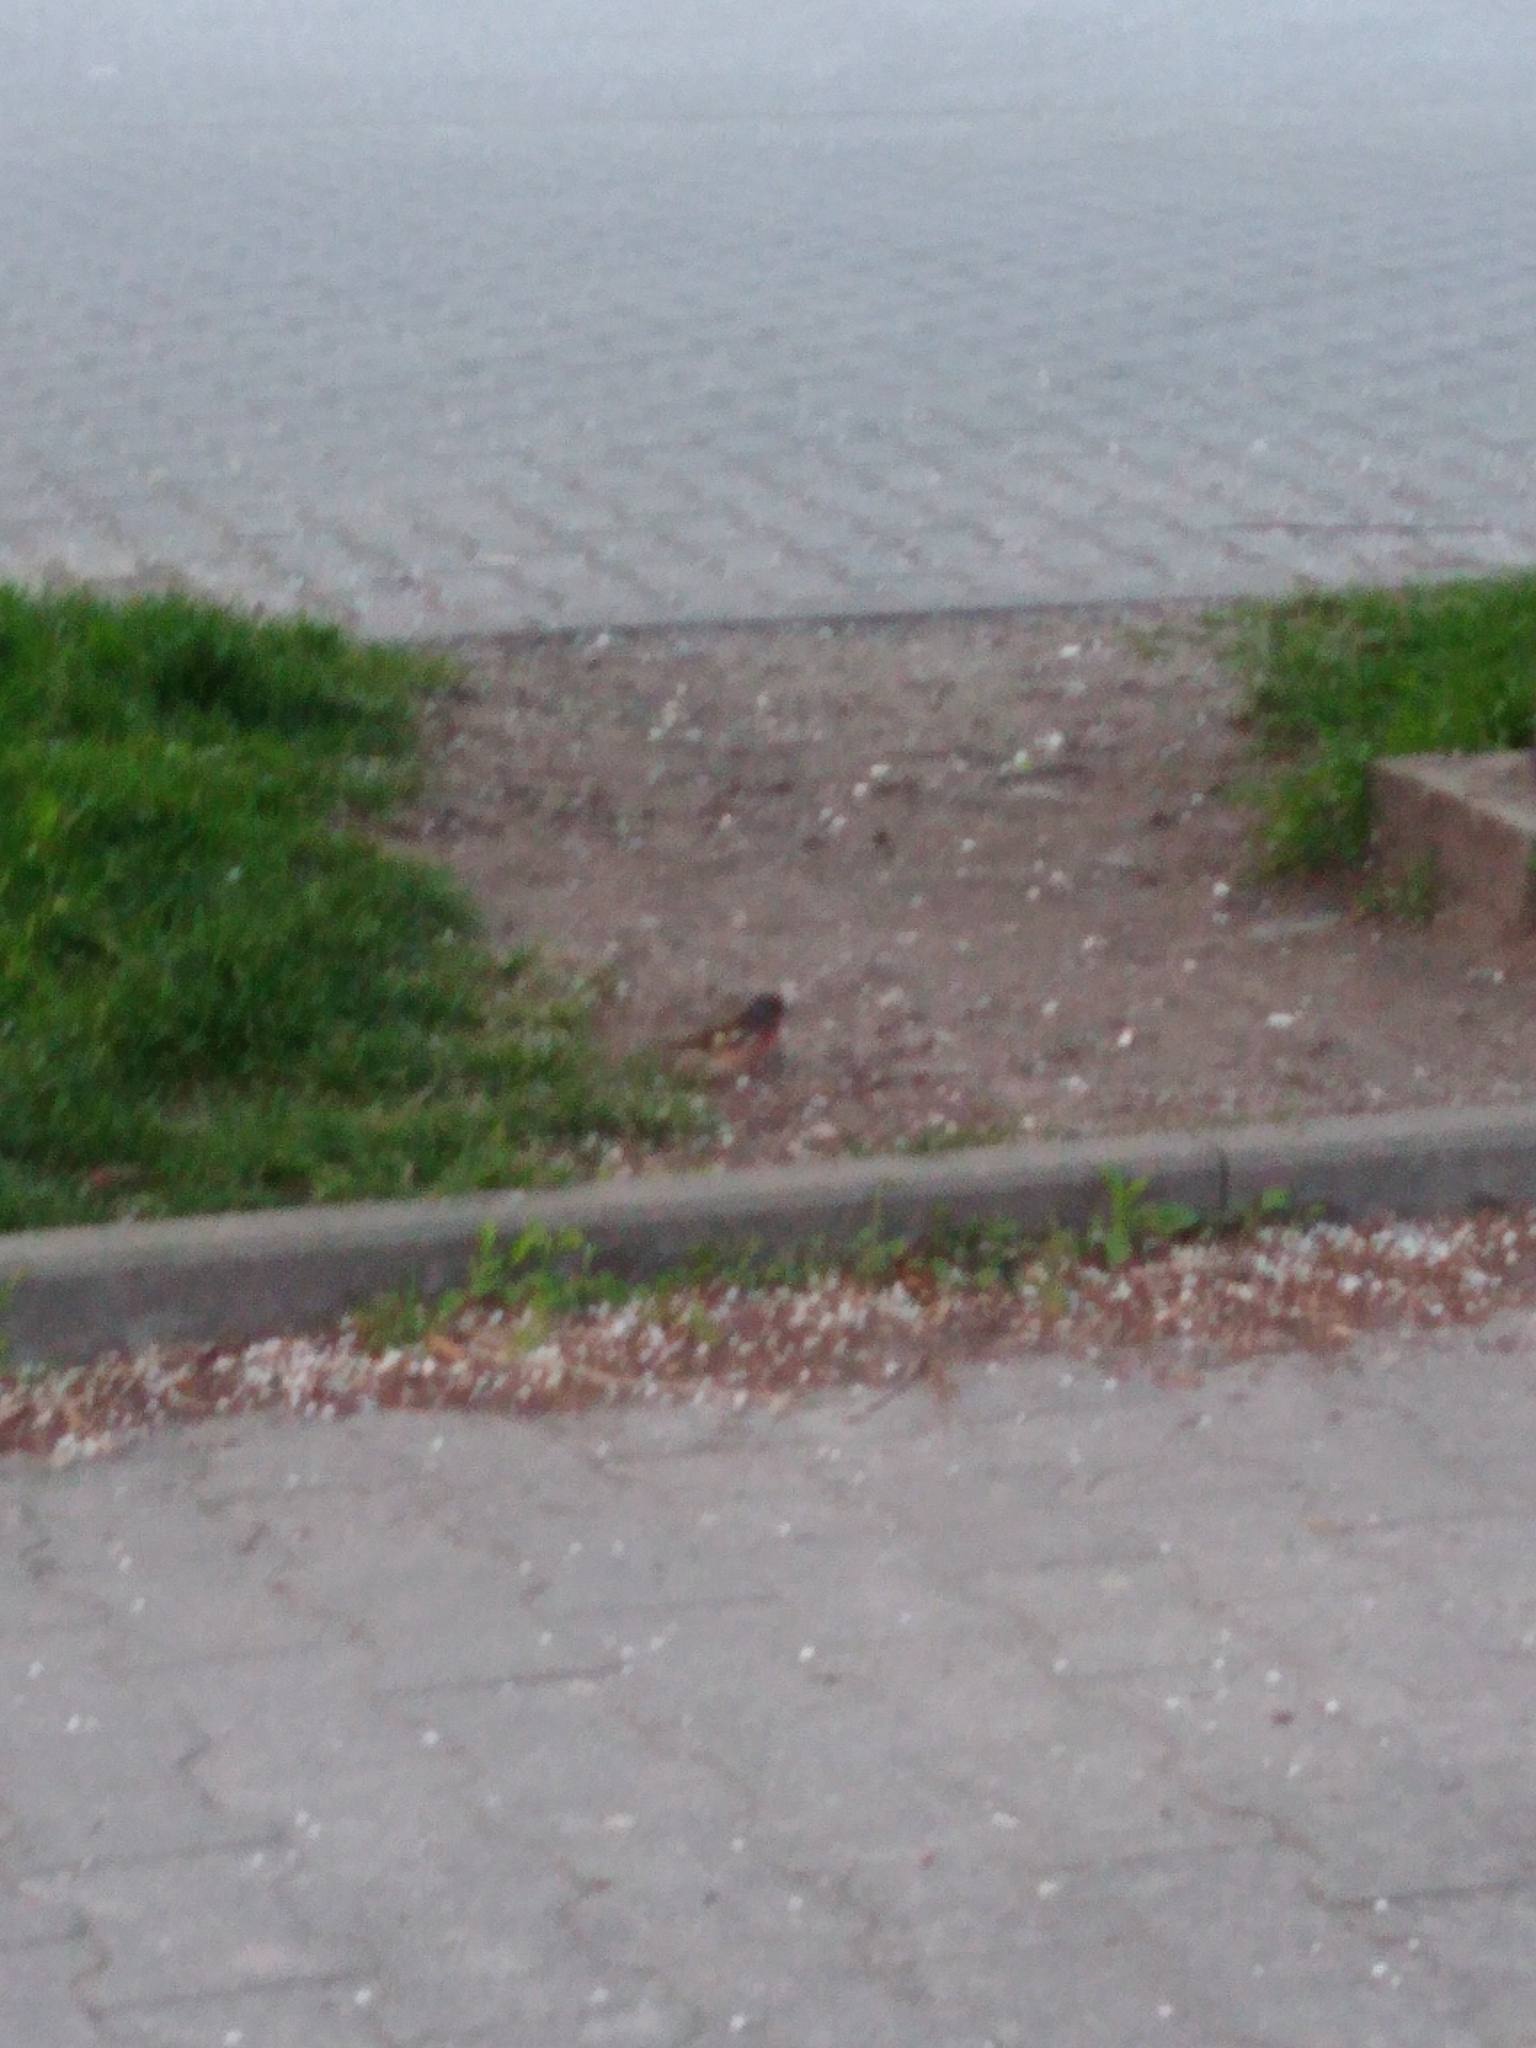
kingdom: Animalia
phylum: Chordata
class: Aves
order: Passeriformes
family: Fringillidae
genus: Fringilla
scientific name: Fringilla coelebs
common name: Common chaffinch
